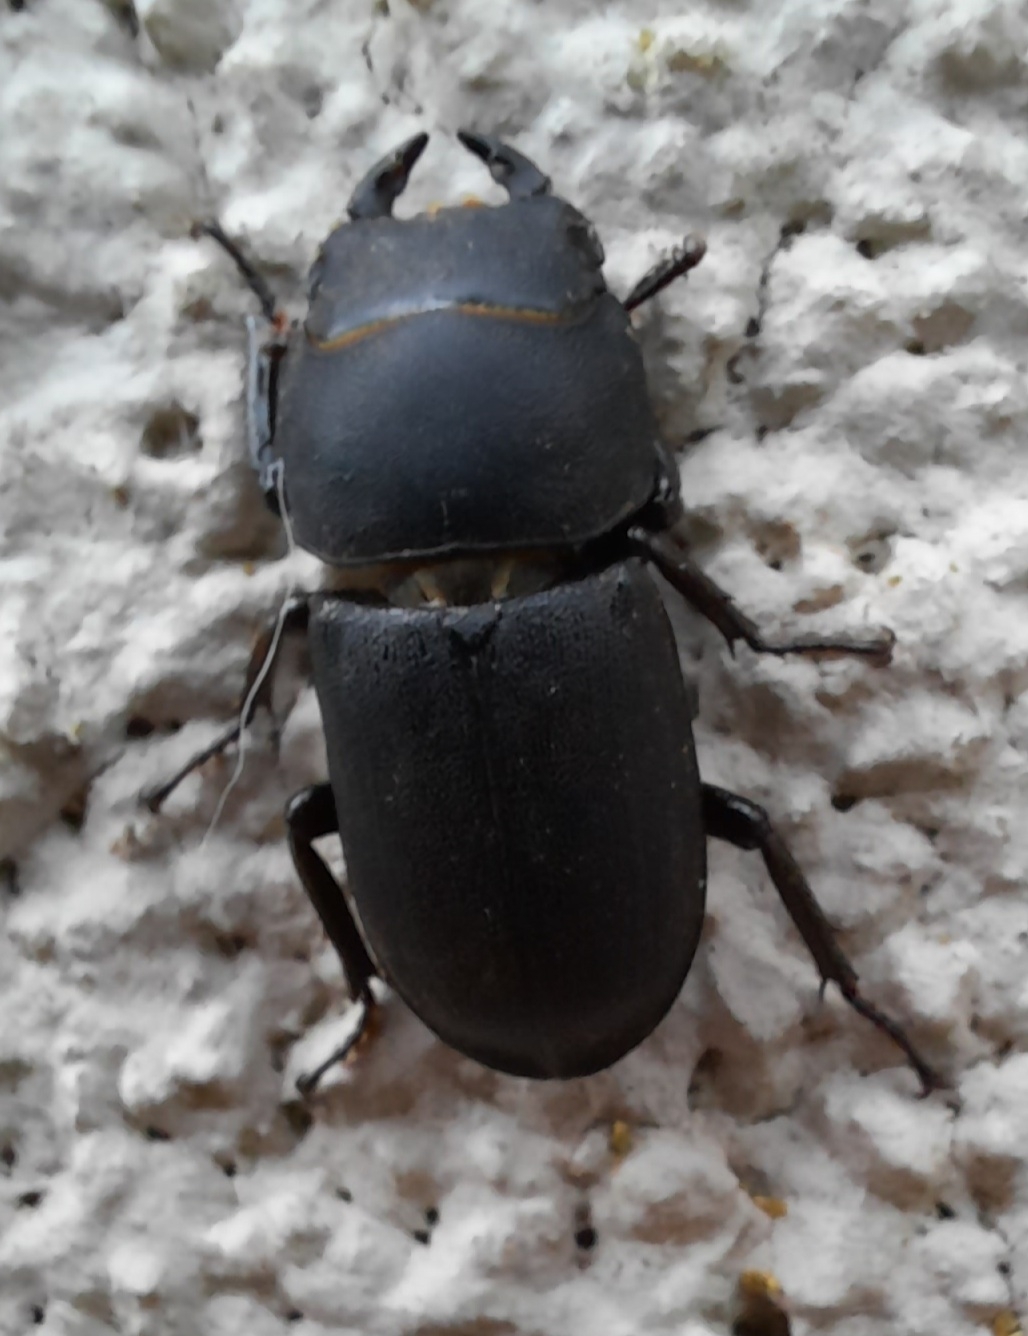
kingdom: Animalia
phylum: Arthropoda
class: Insecta
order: Coleoptera
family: Lucanidae
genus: Dorcus
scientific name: Dorcus parallelipipedus
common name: Lesser stag beetle
